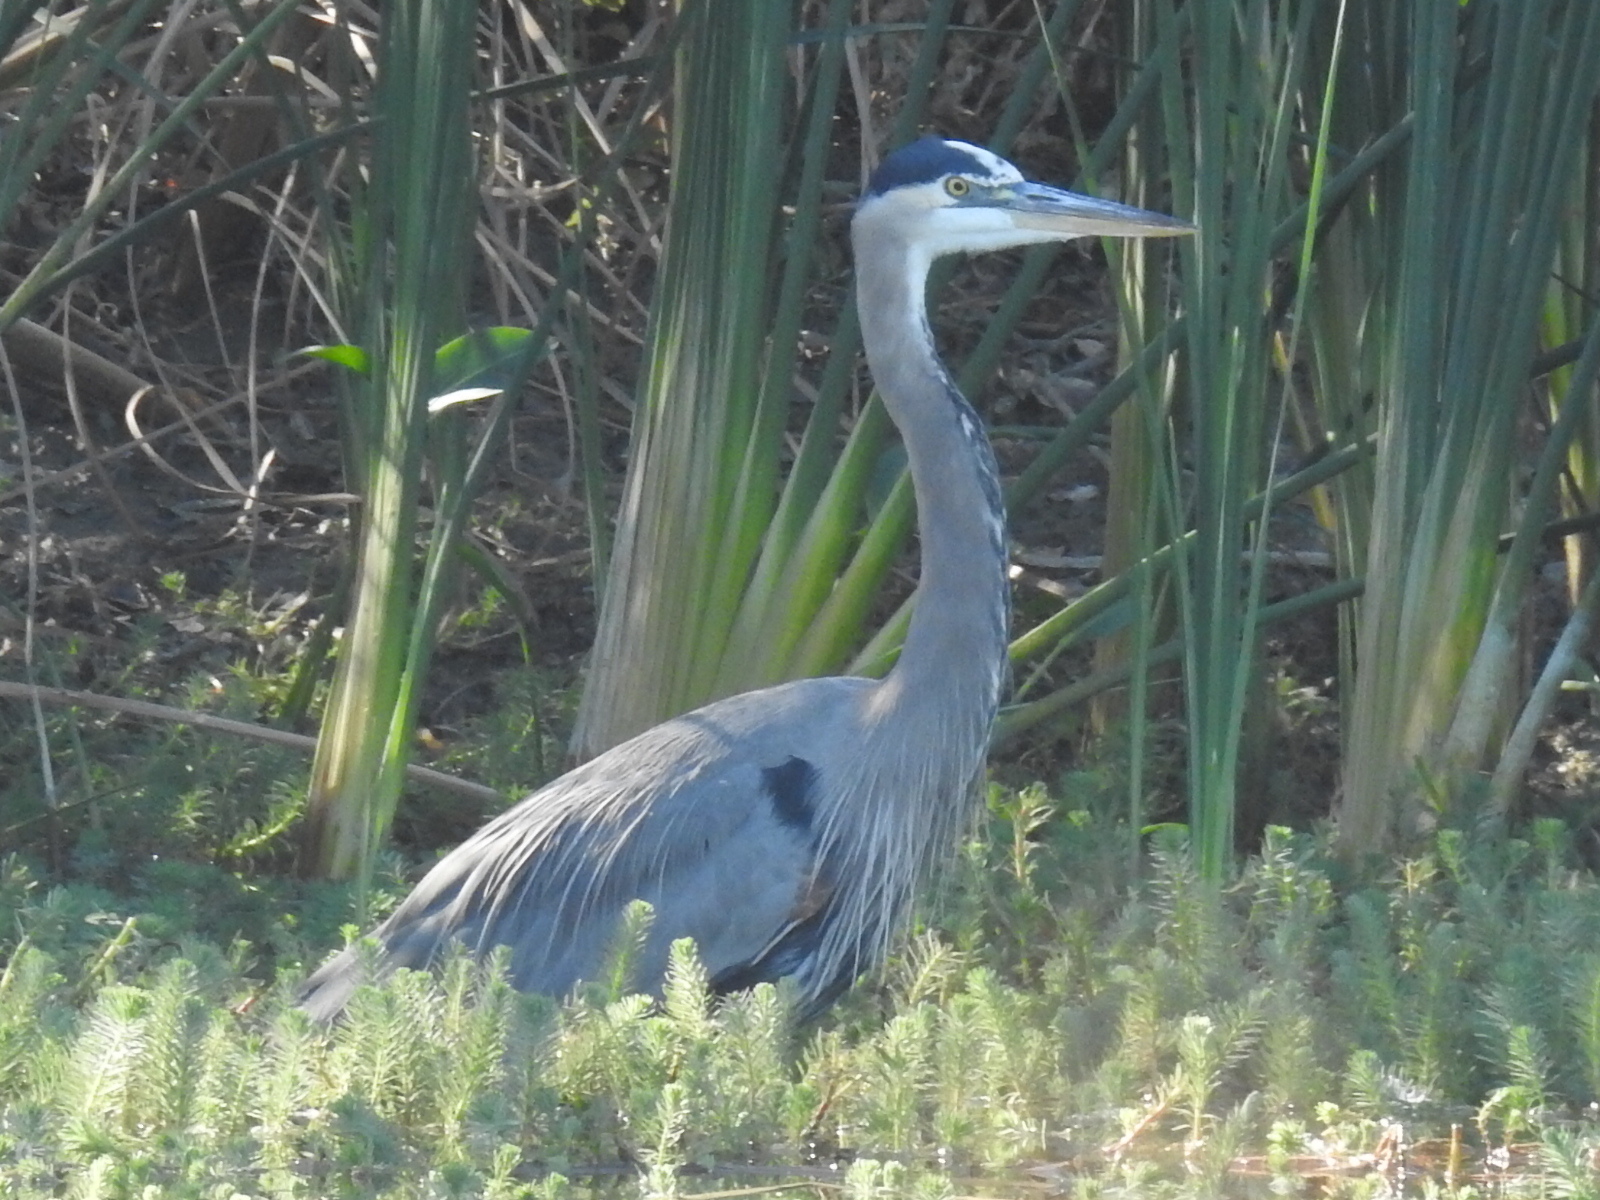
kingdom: Animalia
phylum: Chordata
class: Aves
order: Pelecaniformes
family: Ardeidae
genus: Ardea
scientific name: Ardea herodias
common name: Great blue heron
